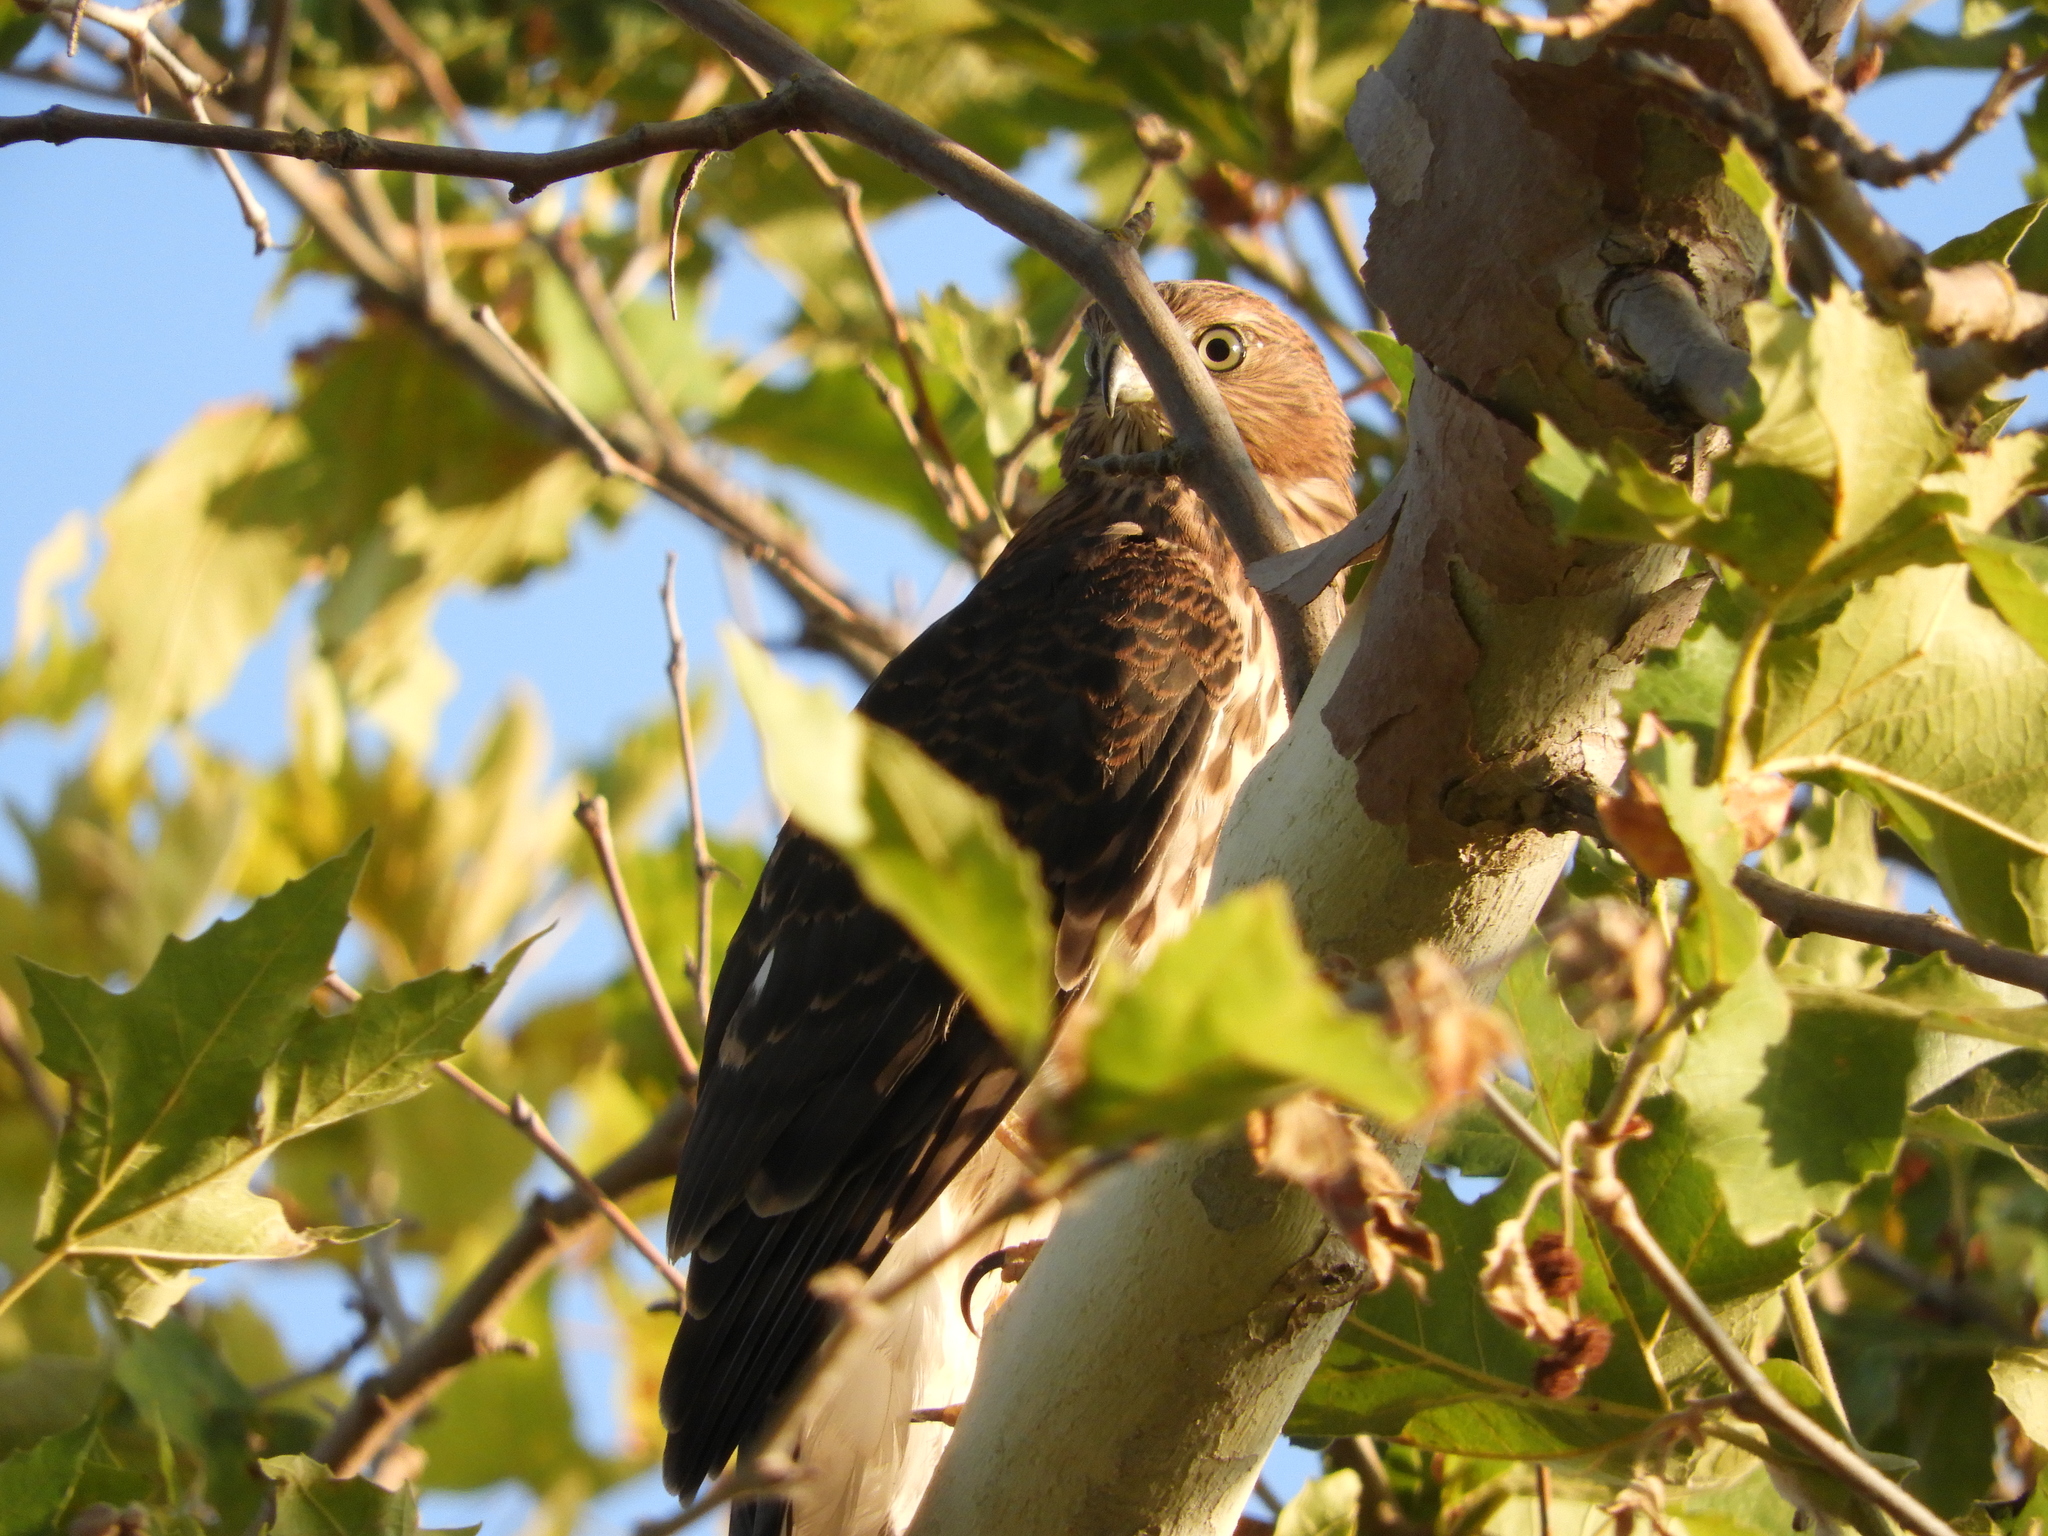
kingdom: Animalia
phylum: Chordata
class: Aves
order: Accipitriformes
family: Accipitridae
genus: Accipiter
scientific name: Accipiter cooperii
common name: Cooper's hawk
